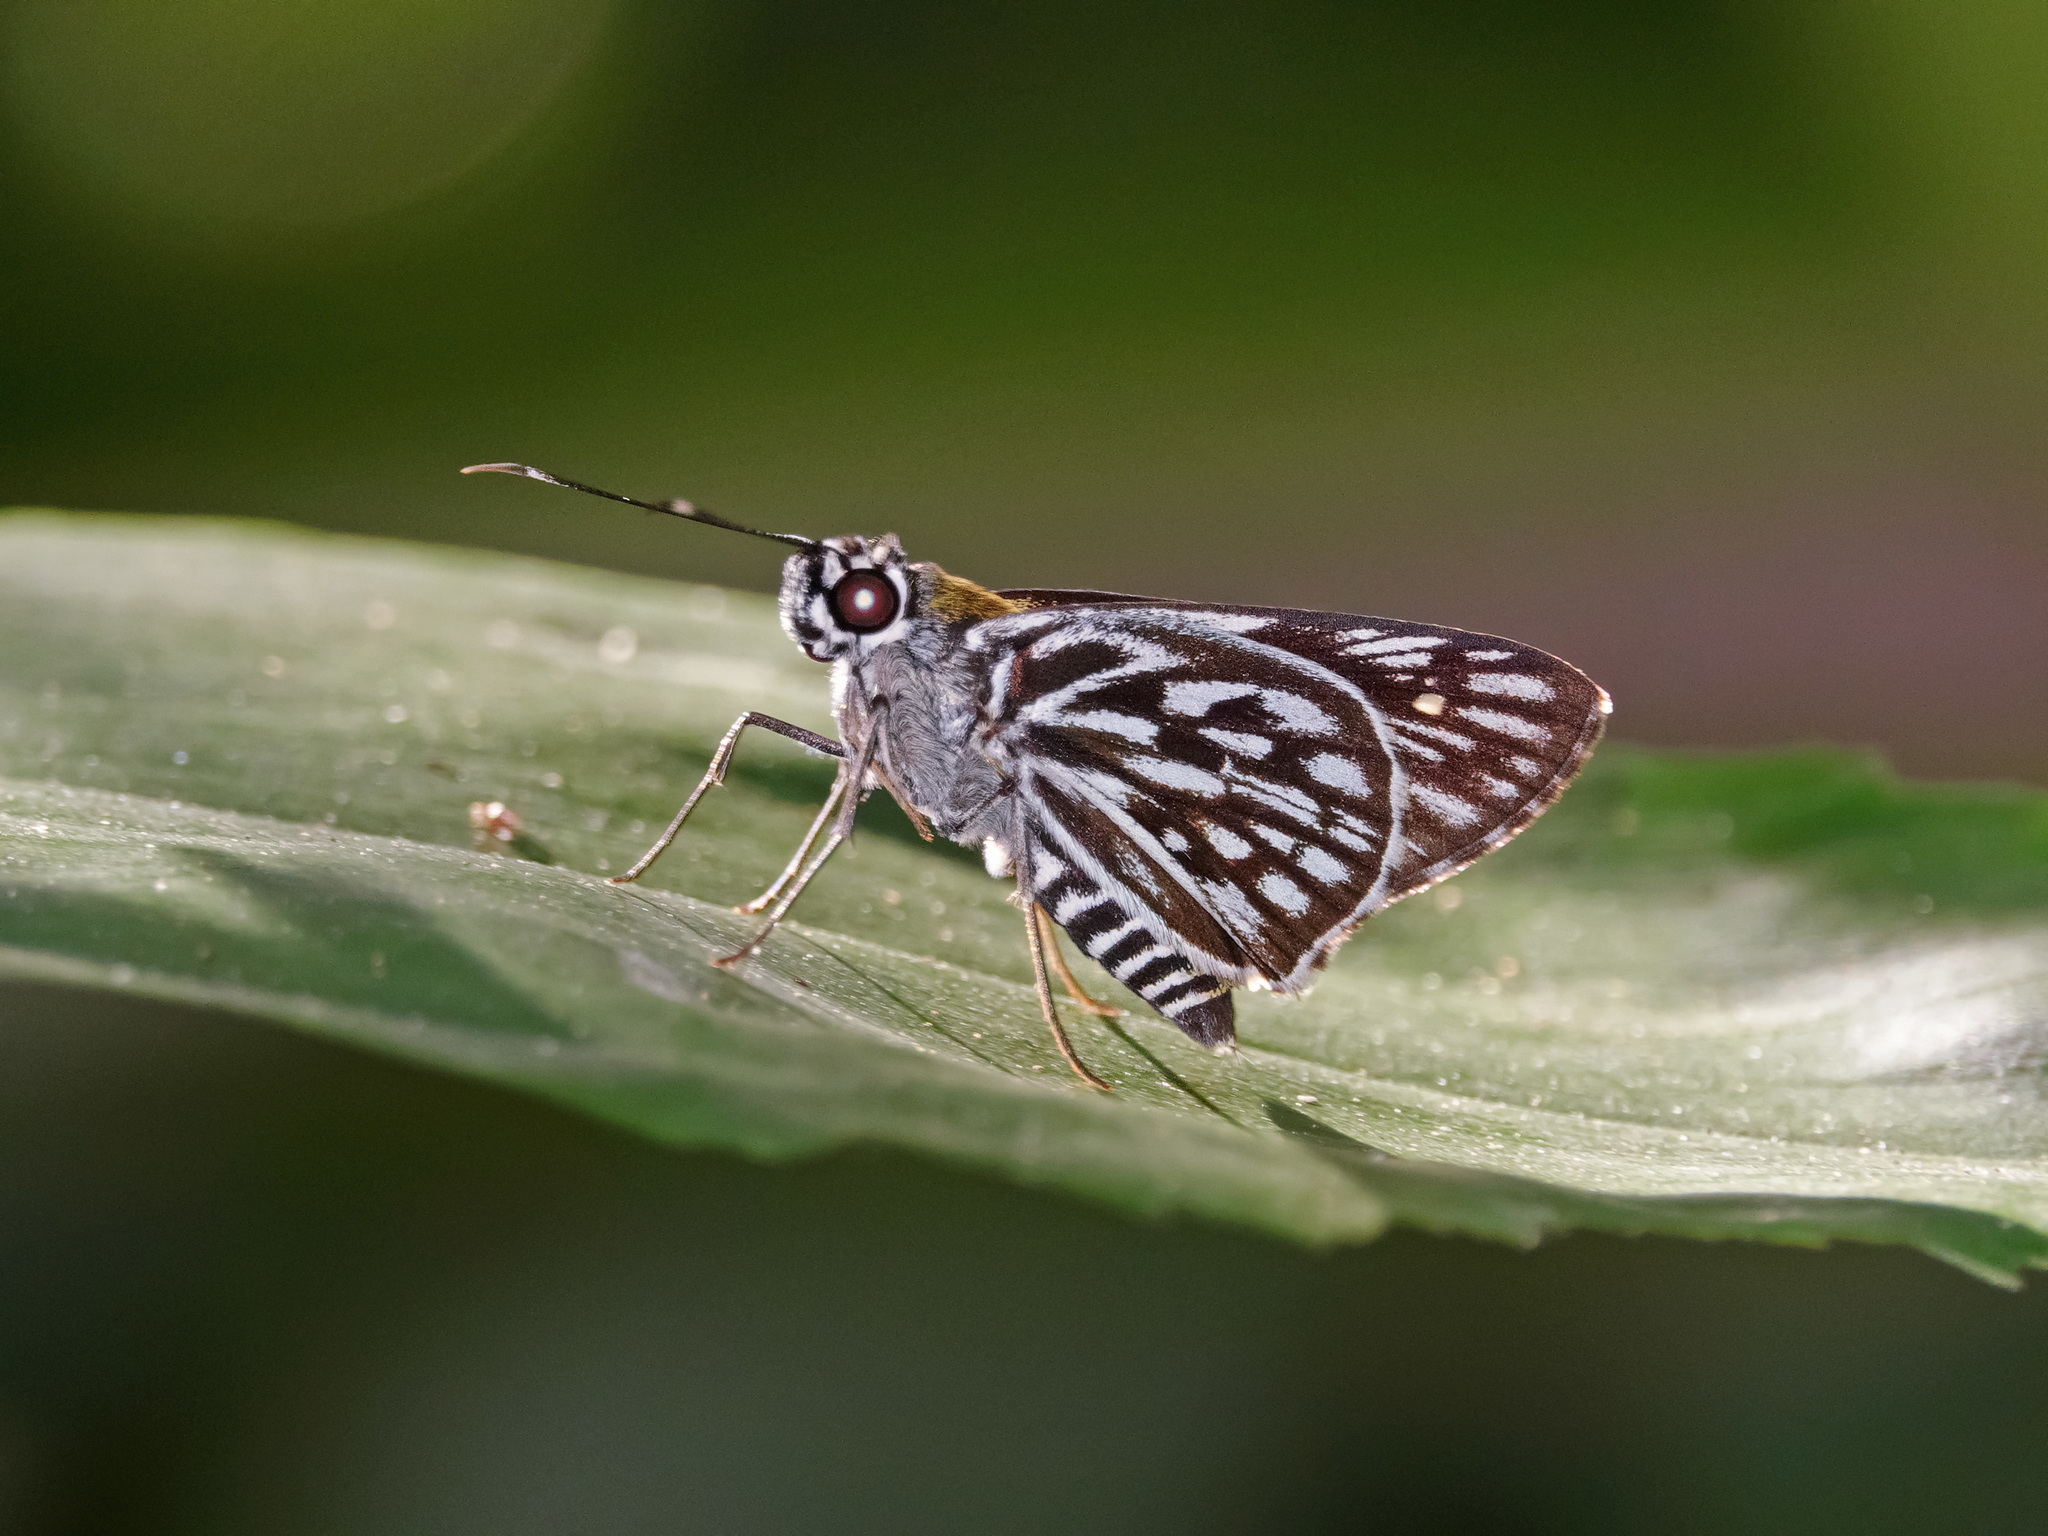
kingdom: Animalia
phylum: Arthropoda
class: Insecta
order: Lepidoptera
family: Hesperiidae
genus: Plastingia
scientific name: Plastingia naga
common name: Chequered lancer
